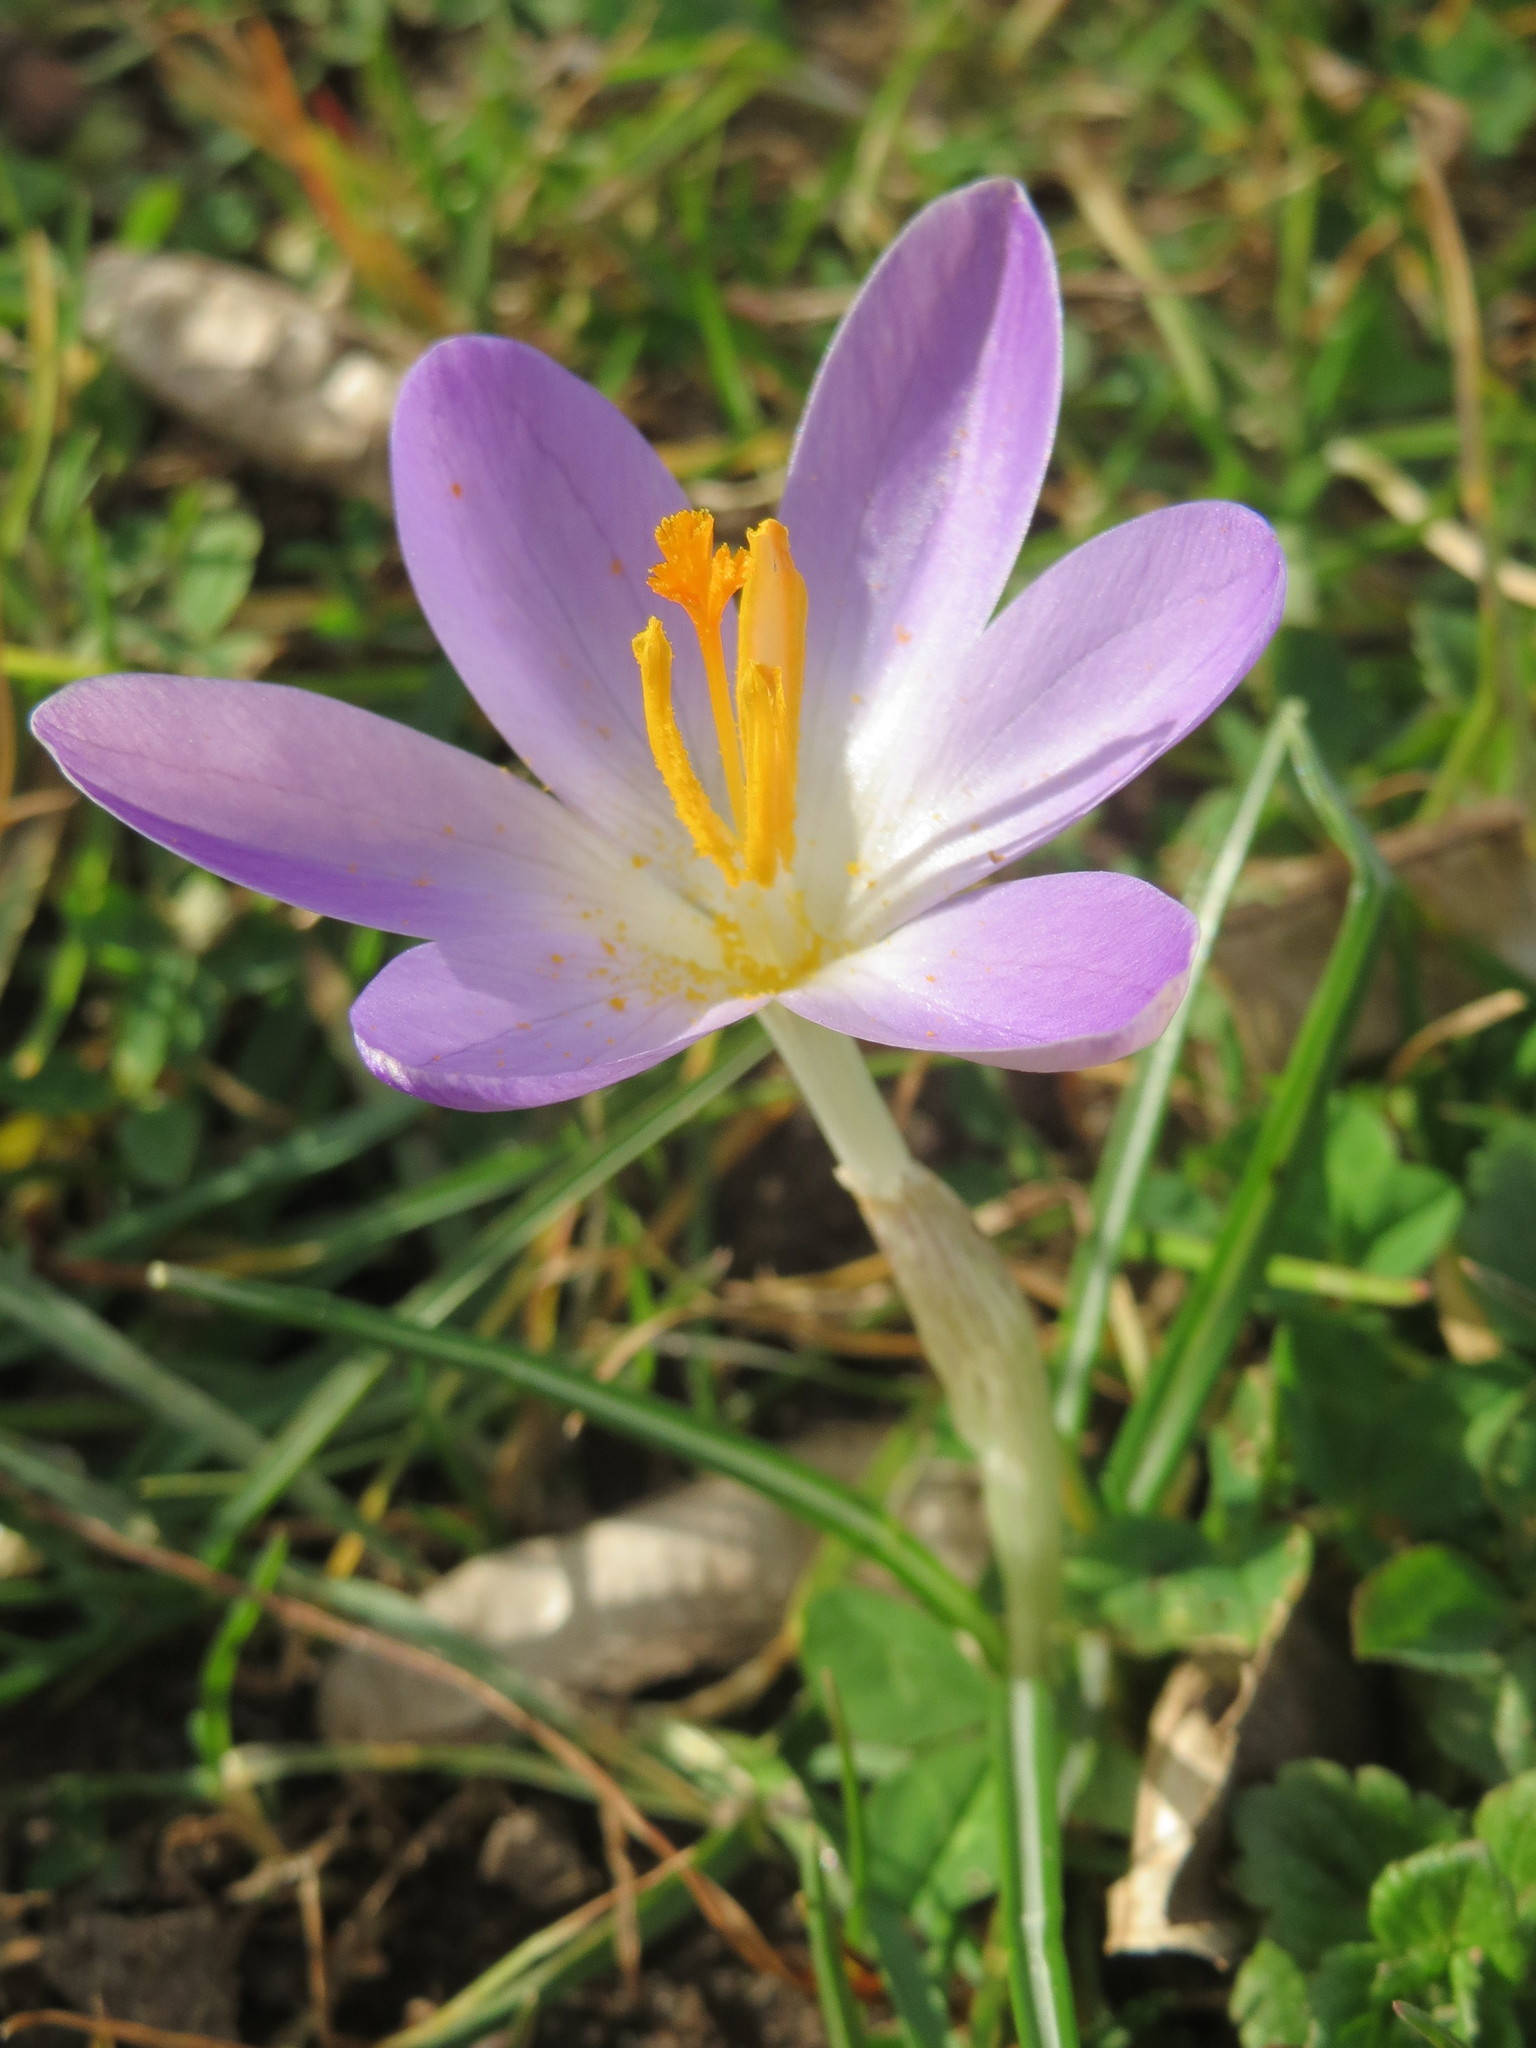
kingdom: Plantae
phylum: Tracheophyta
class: Liliopsida
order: Asparagales
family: Iridaceae
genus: Crocus
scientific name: Crocus tommasinianus
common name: Early crocus
